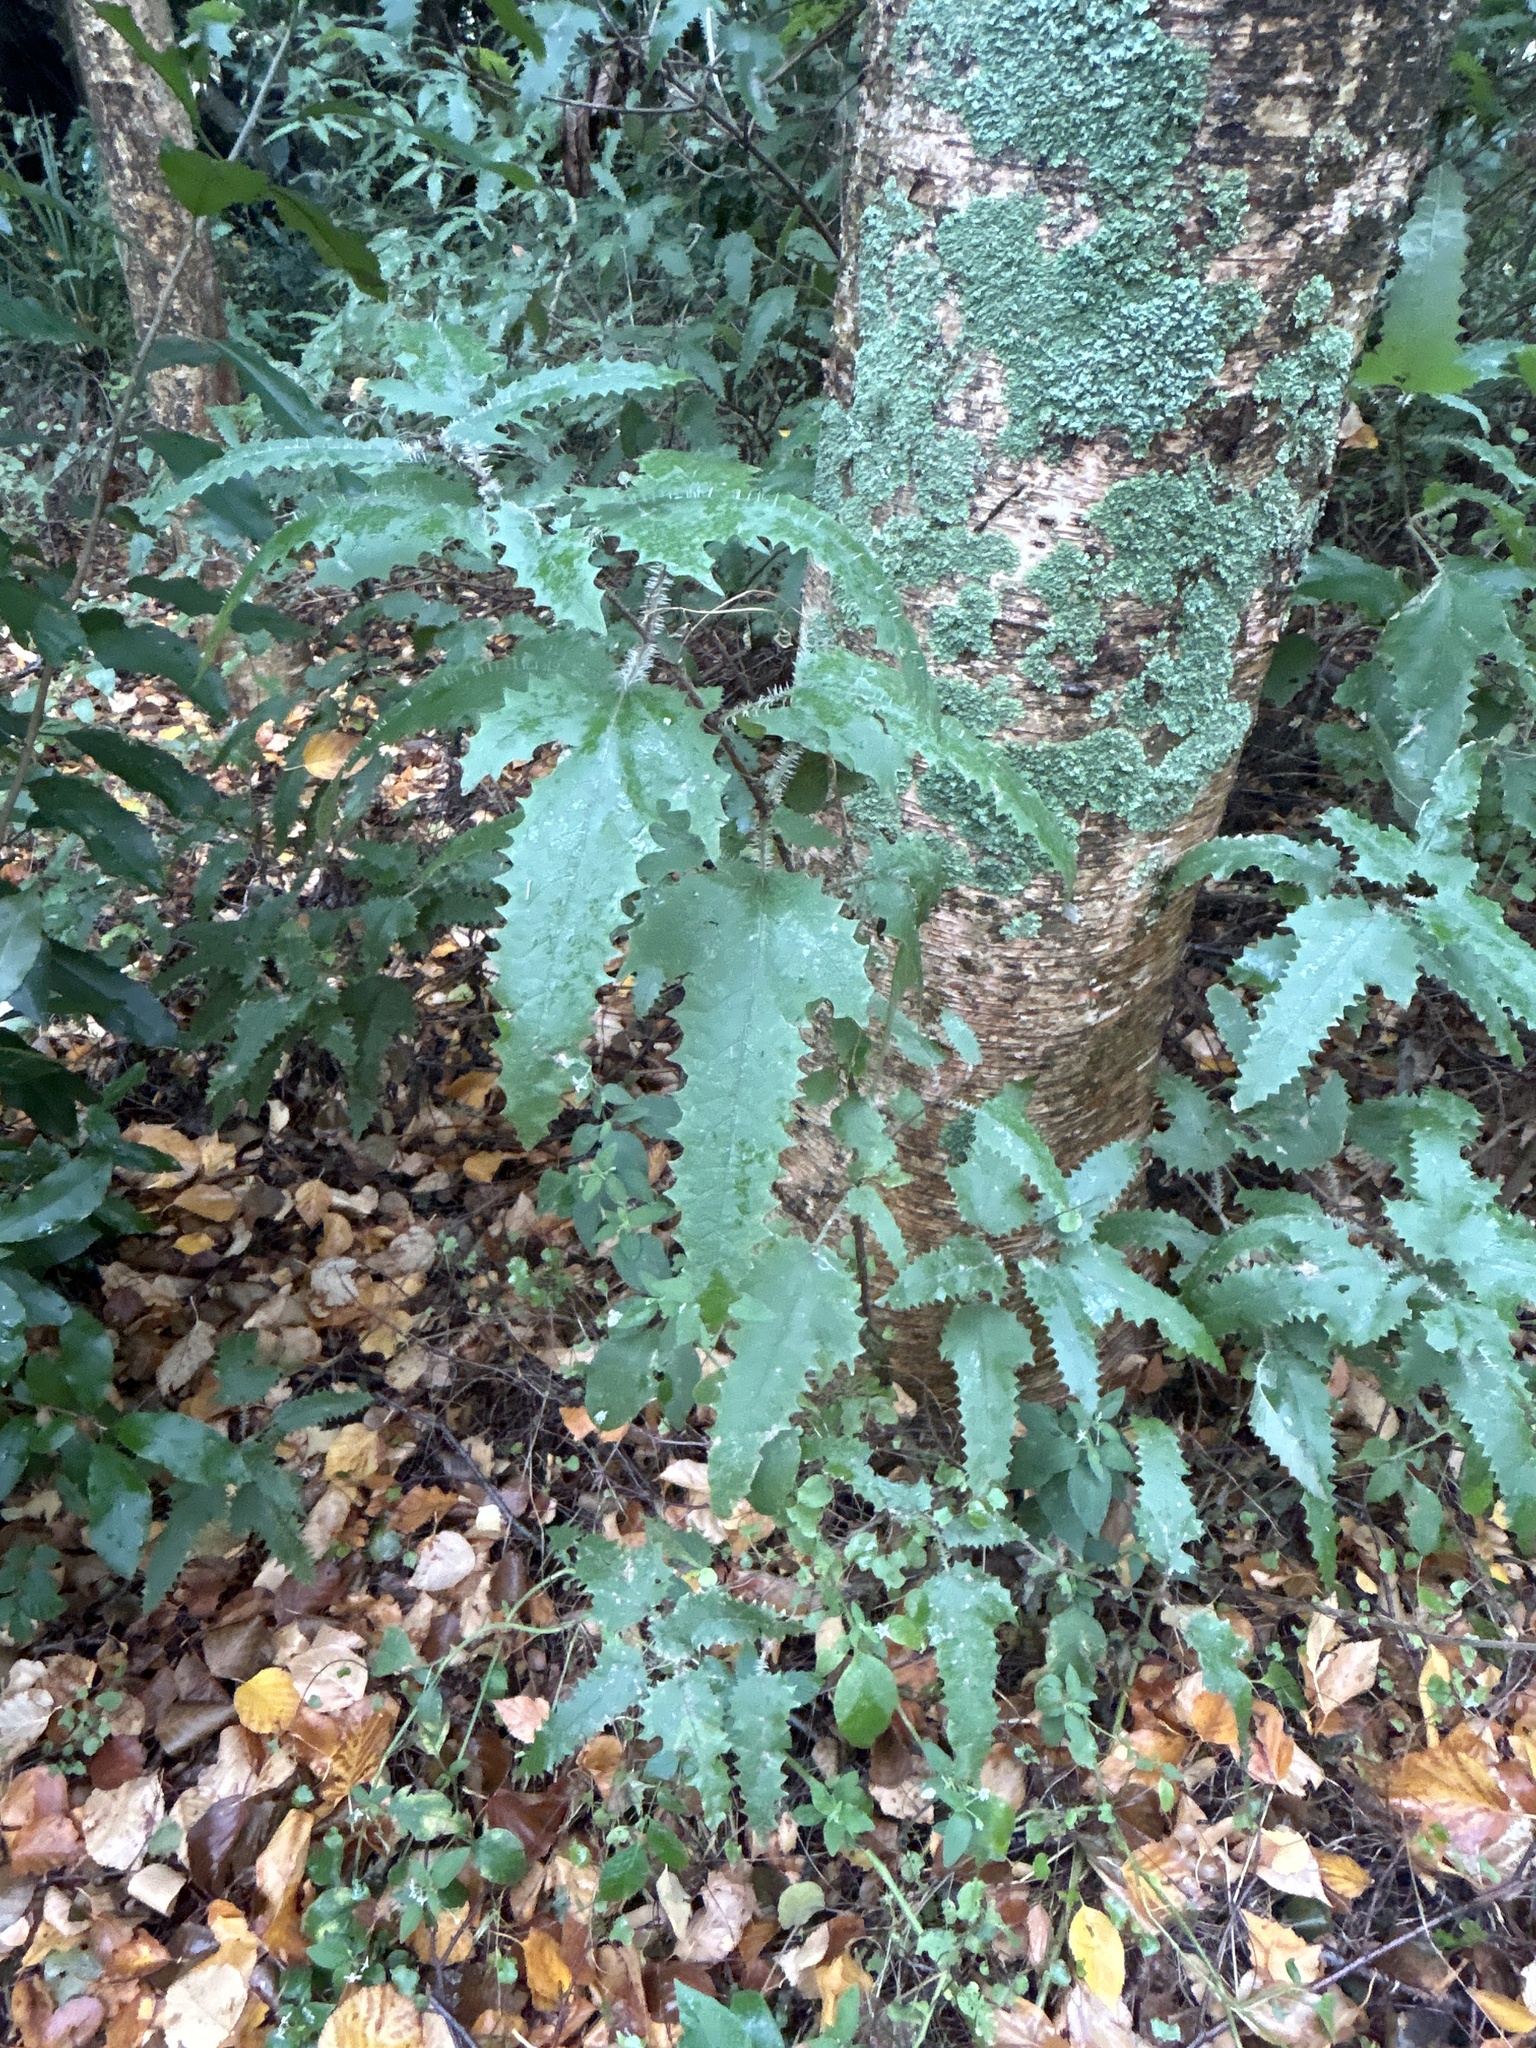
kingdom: Plantae
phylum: Tracheophyta
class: Magnoliopsida
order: Rosales
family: Urticaceae
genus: Urtica
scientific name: Urtica ferox
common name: Tree nettle
